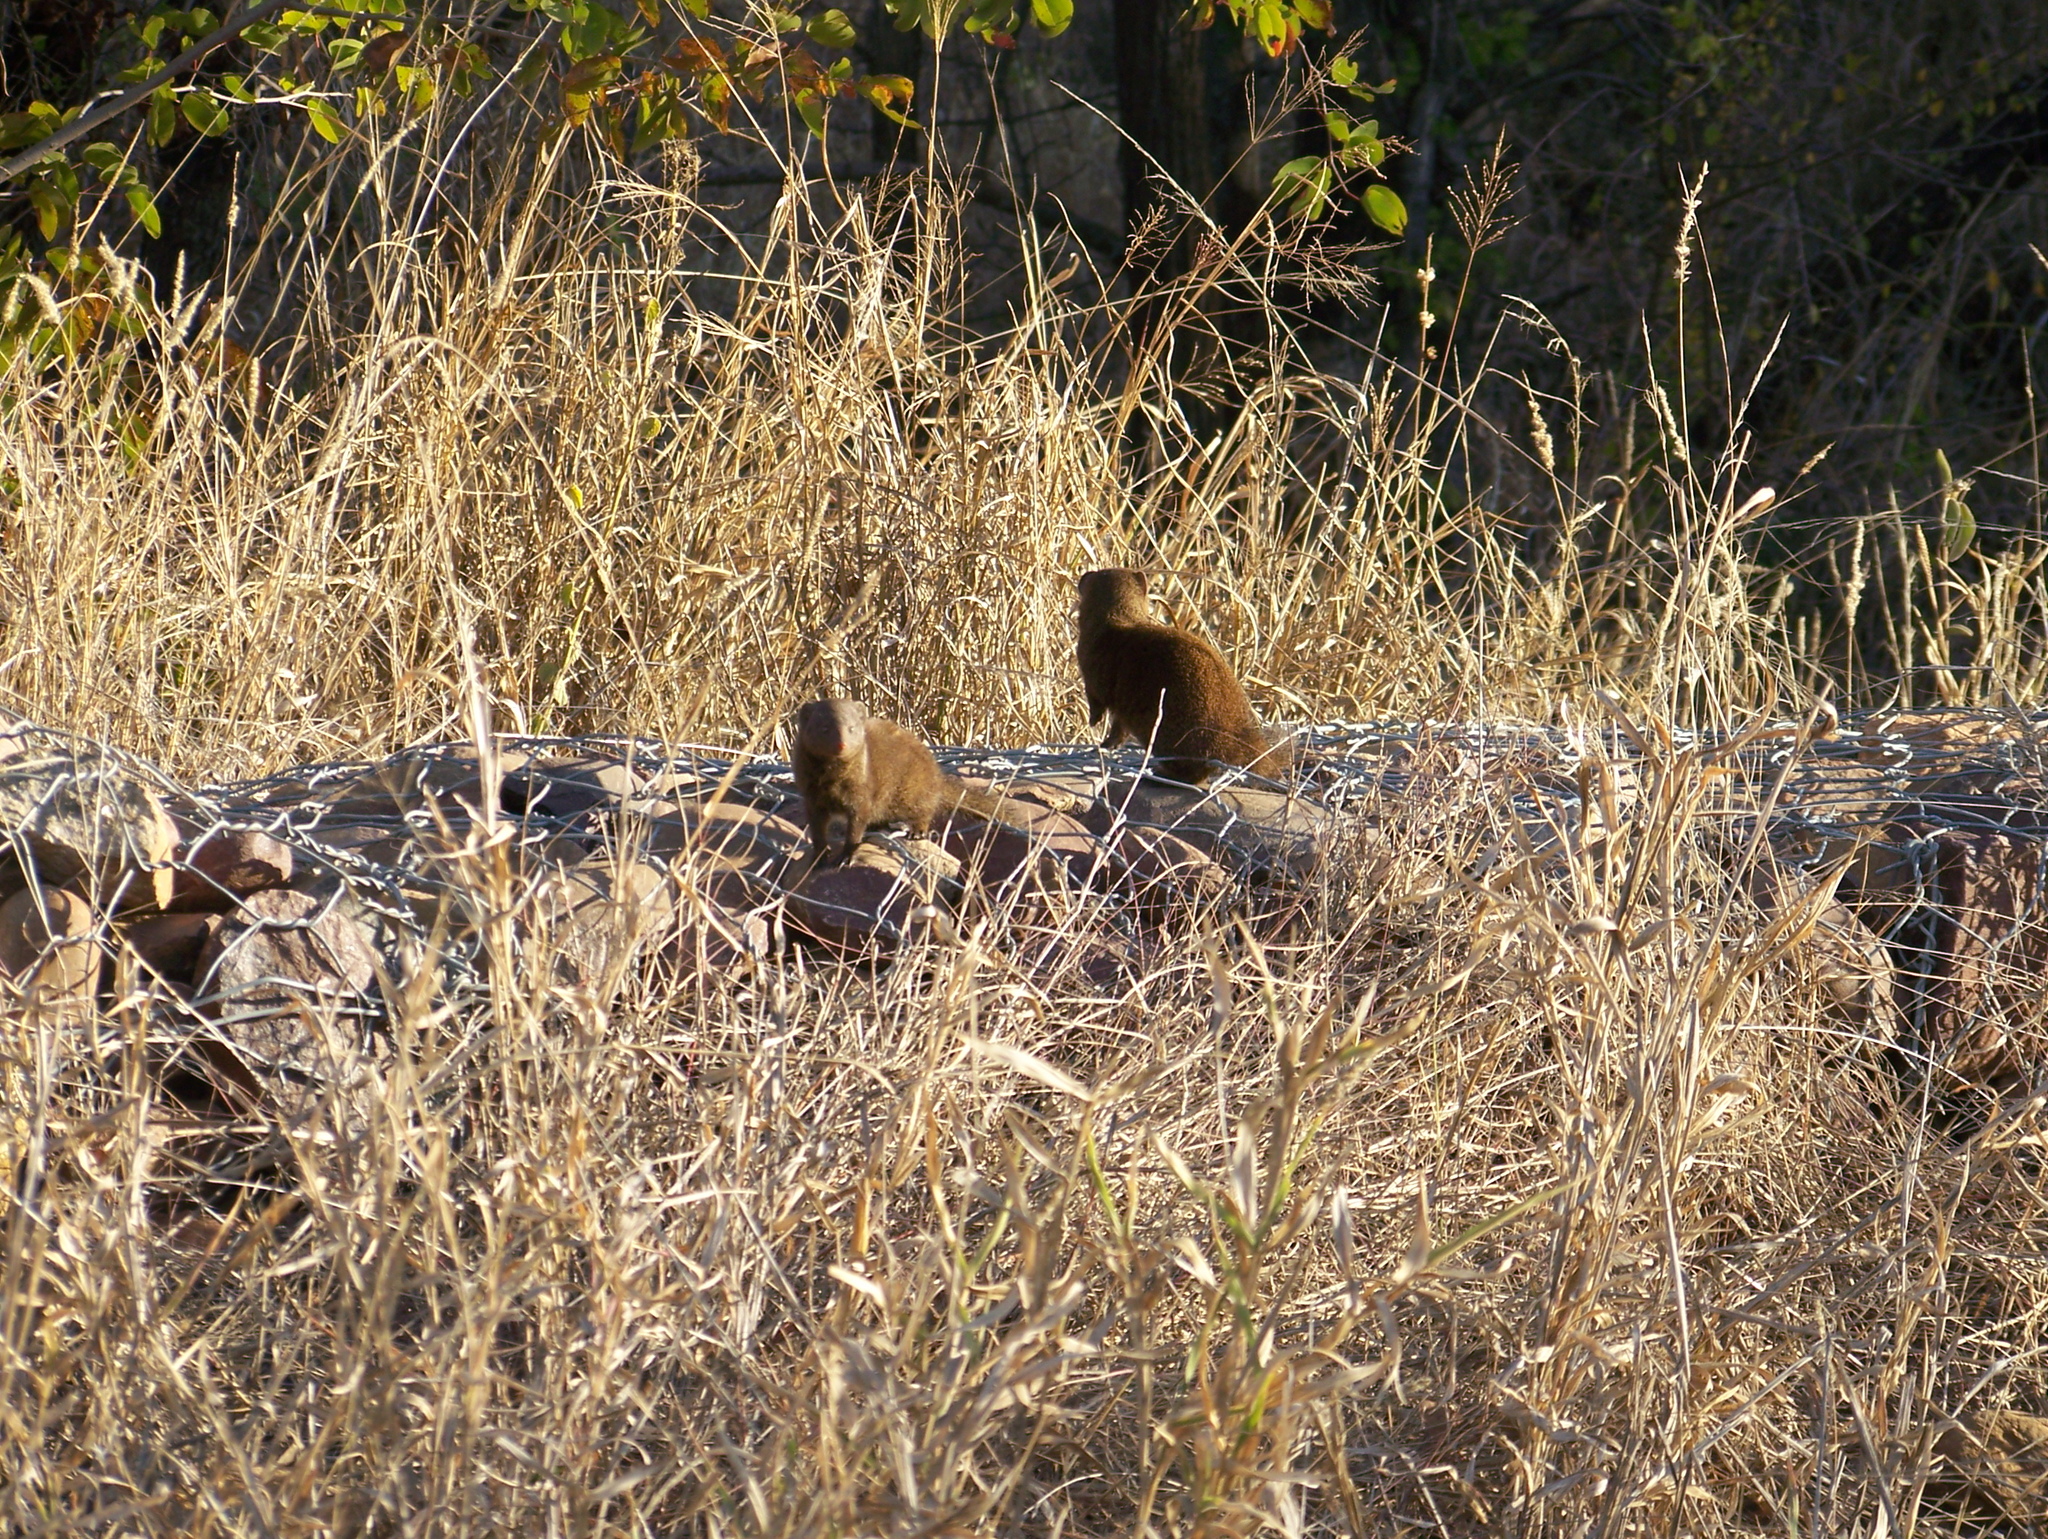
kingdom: Animalia
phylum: Chordata
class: Mammalia
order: Carnivora
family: Herpestidae
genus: Helogale
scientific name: Helogale parvula
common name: Common dwarf mongoose
